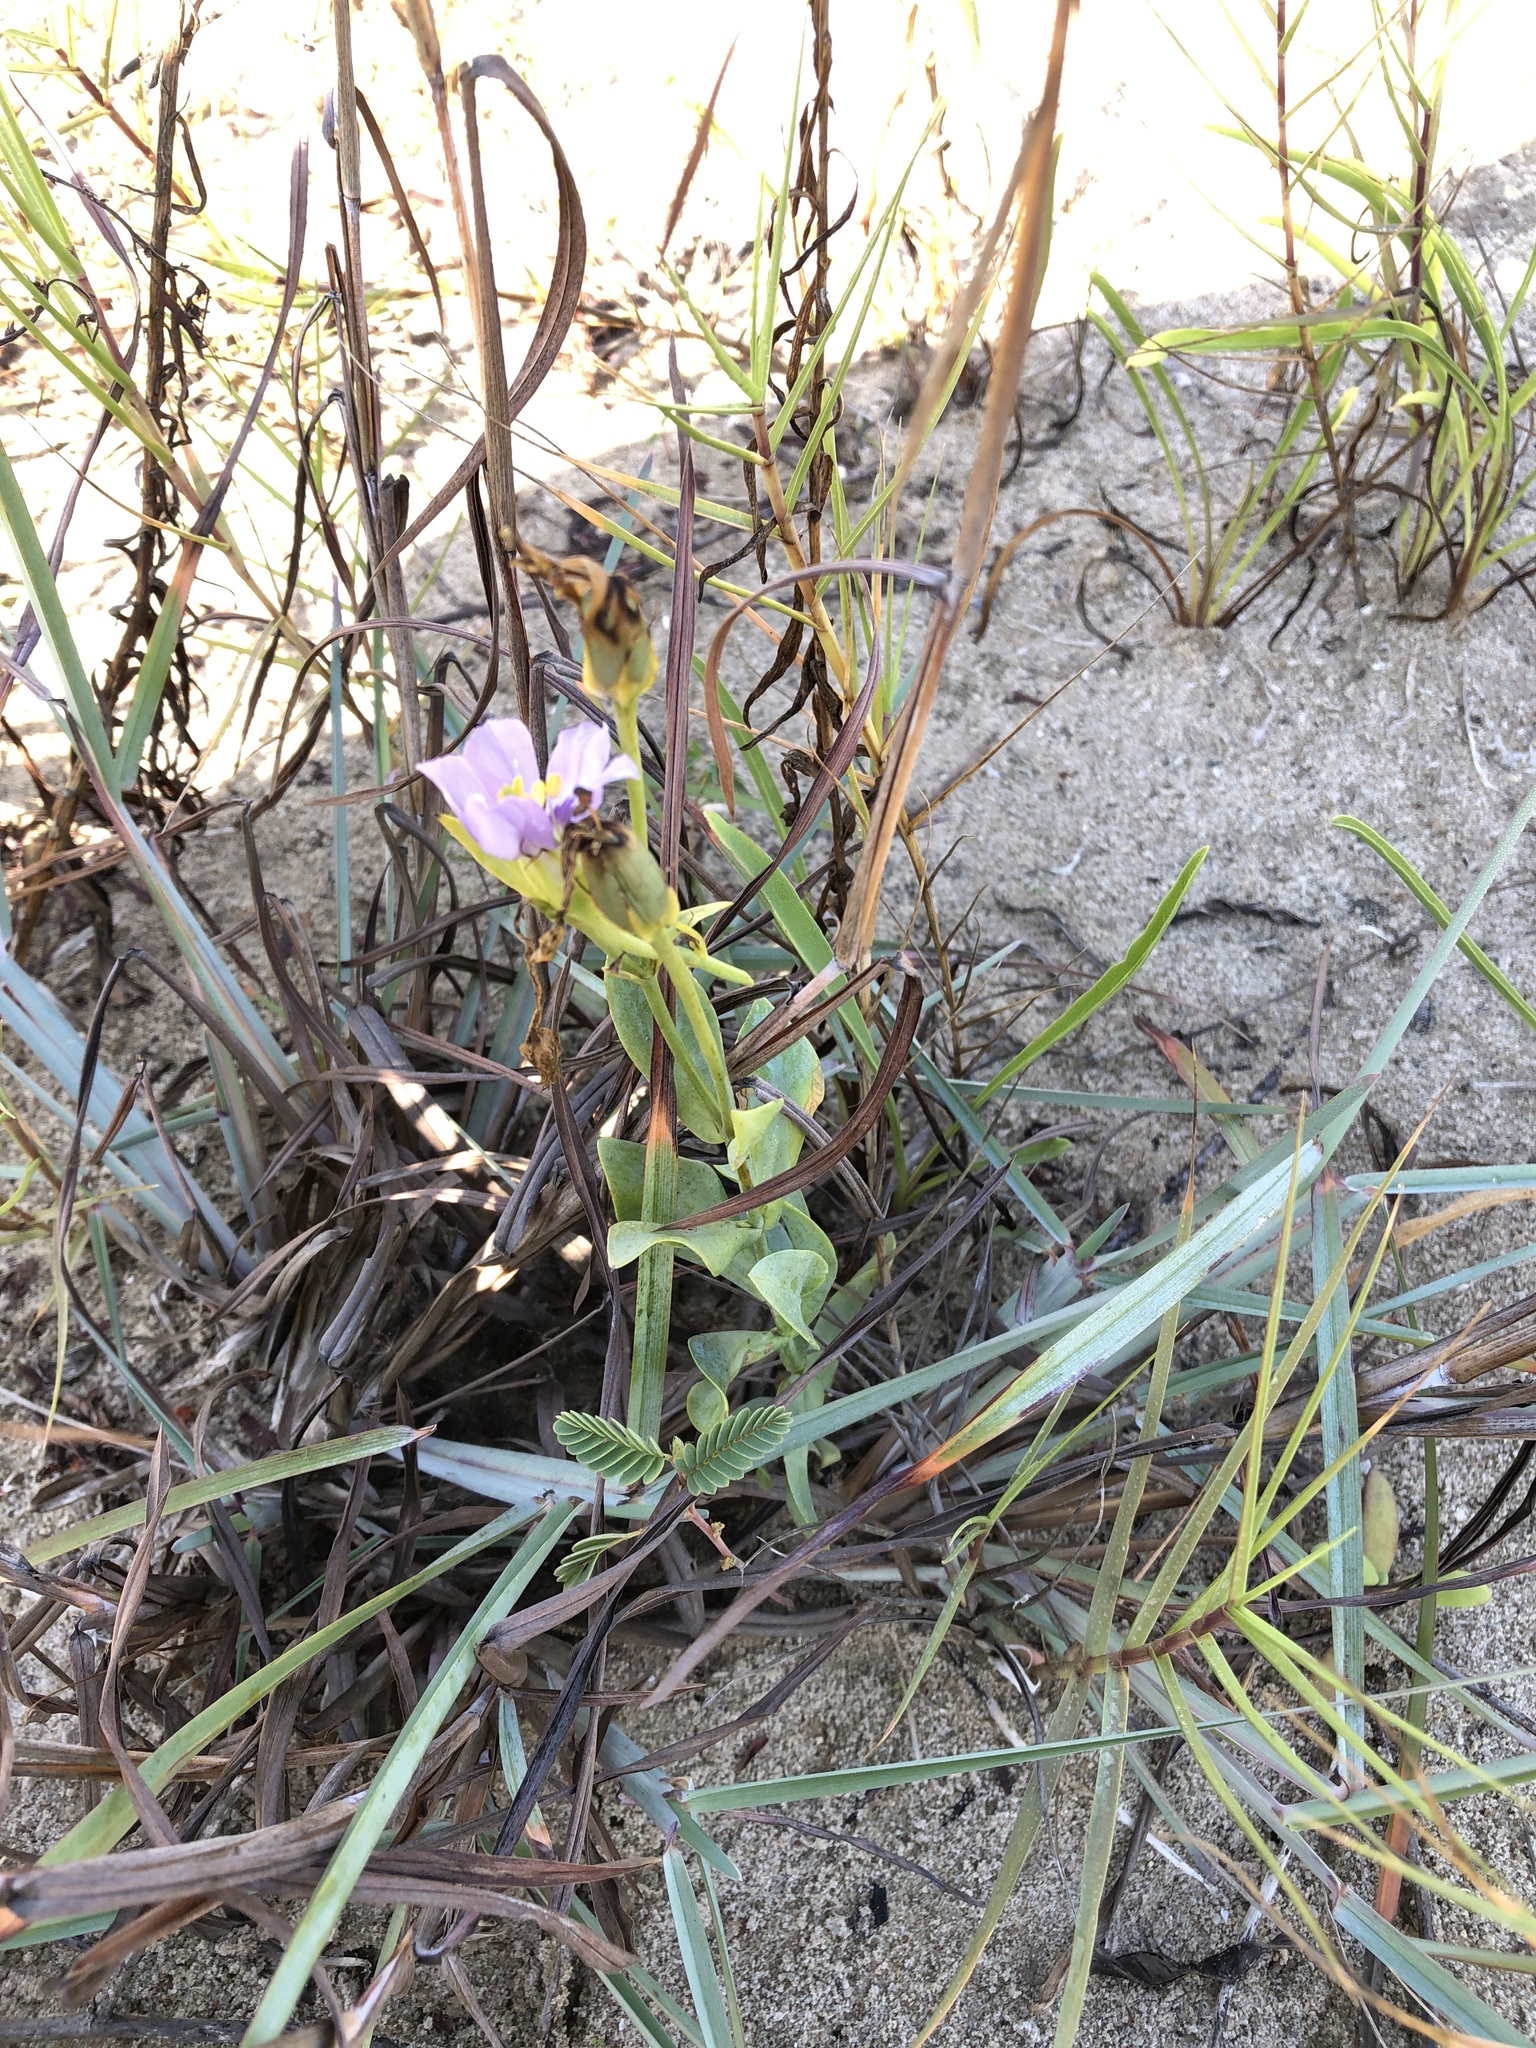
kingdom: Plantae
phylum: Tracheophyta
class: Magnoliopsida
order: Gentianales
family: Gentianaceae
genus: Eustoma
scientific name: Eustoma exaltatum
